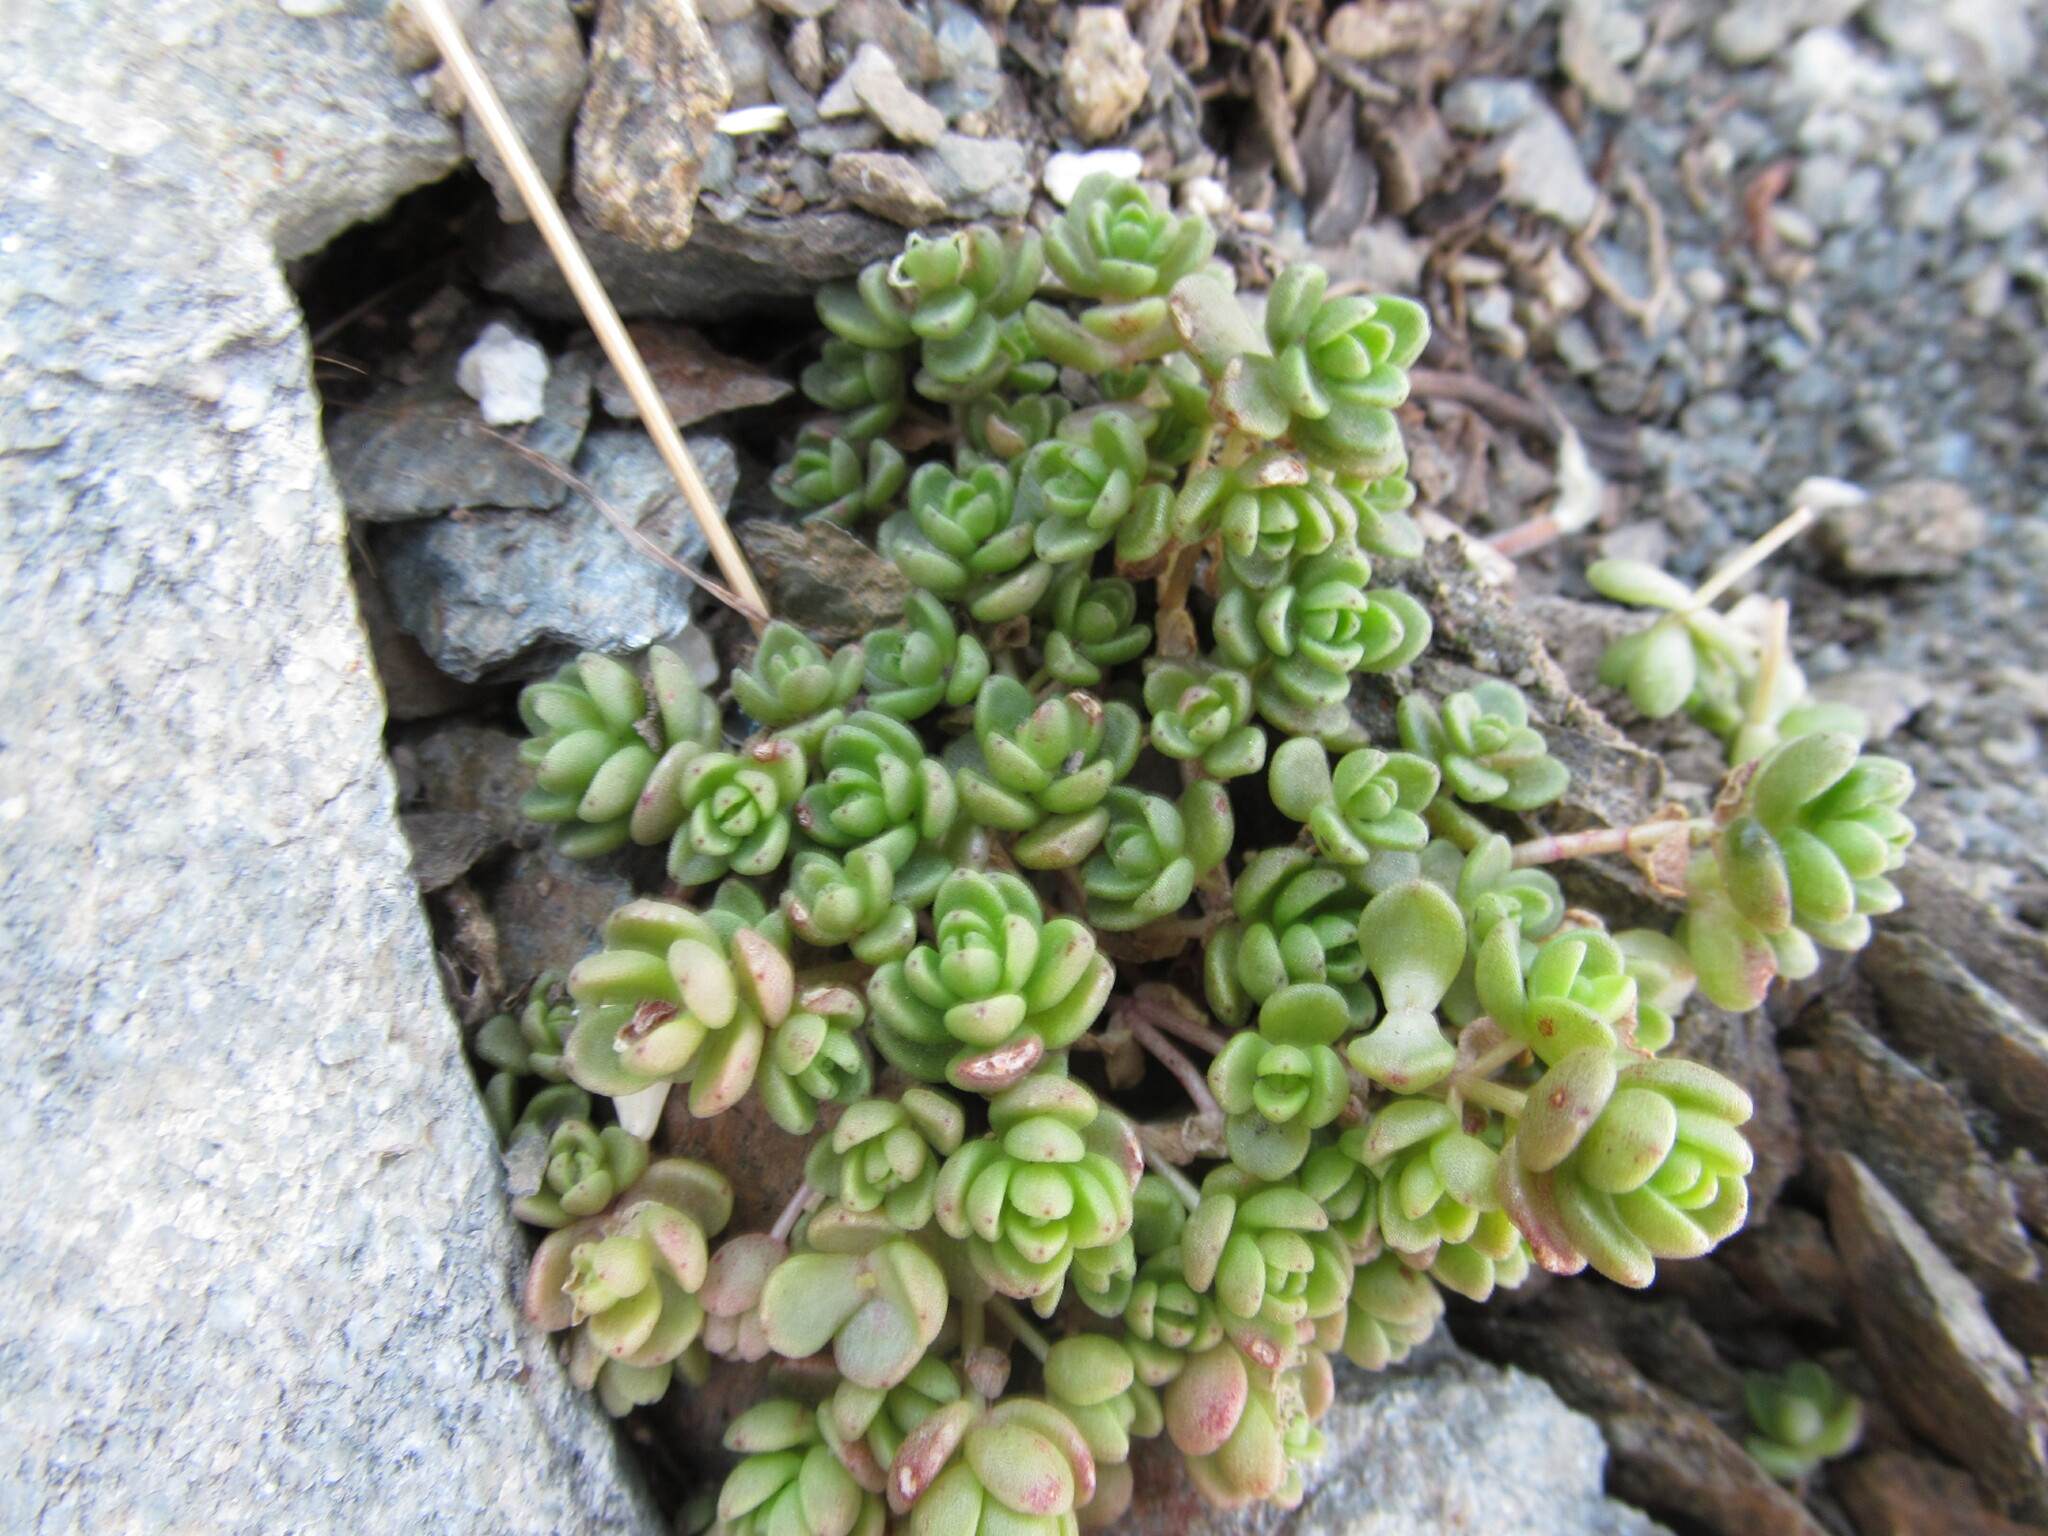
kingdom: Plantae
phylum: Tracheophyta
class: Magnoliopsida
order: Saxifragales
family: Crassulaceae
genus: Sedum
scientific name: Sedum debile
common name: Weak-stem stonecrop
